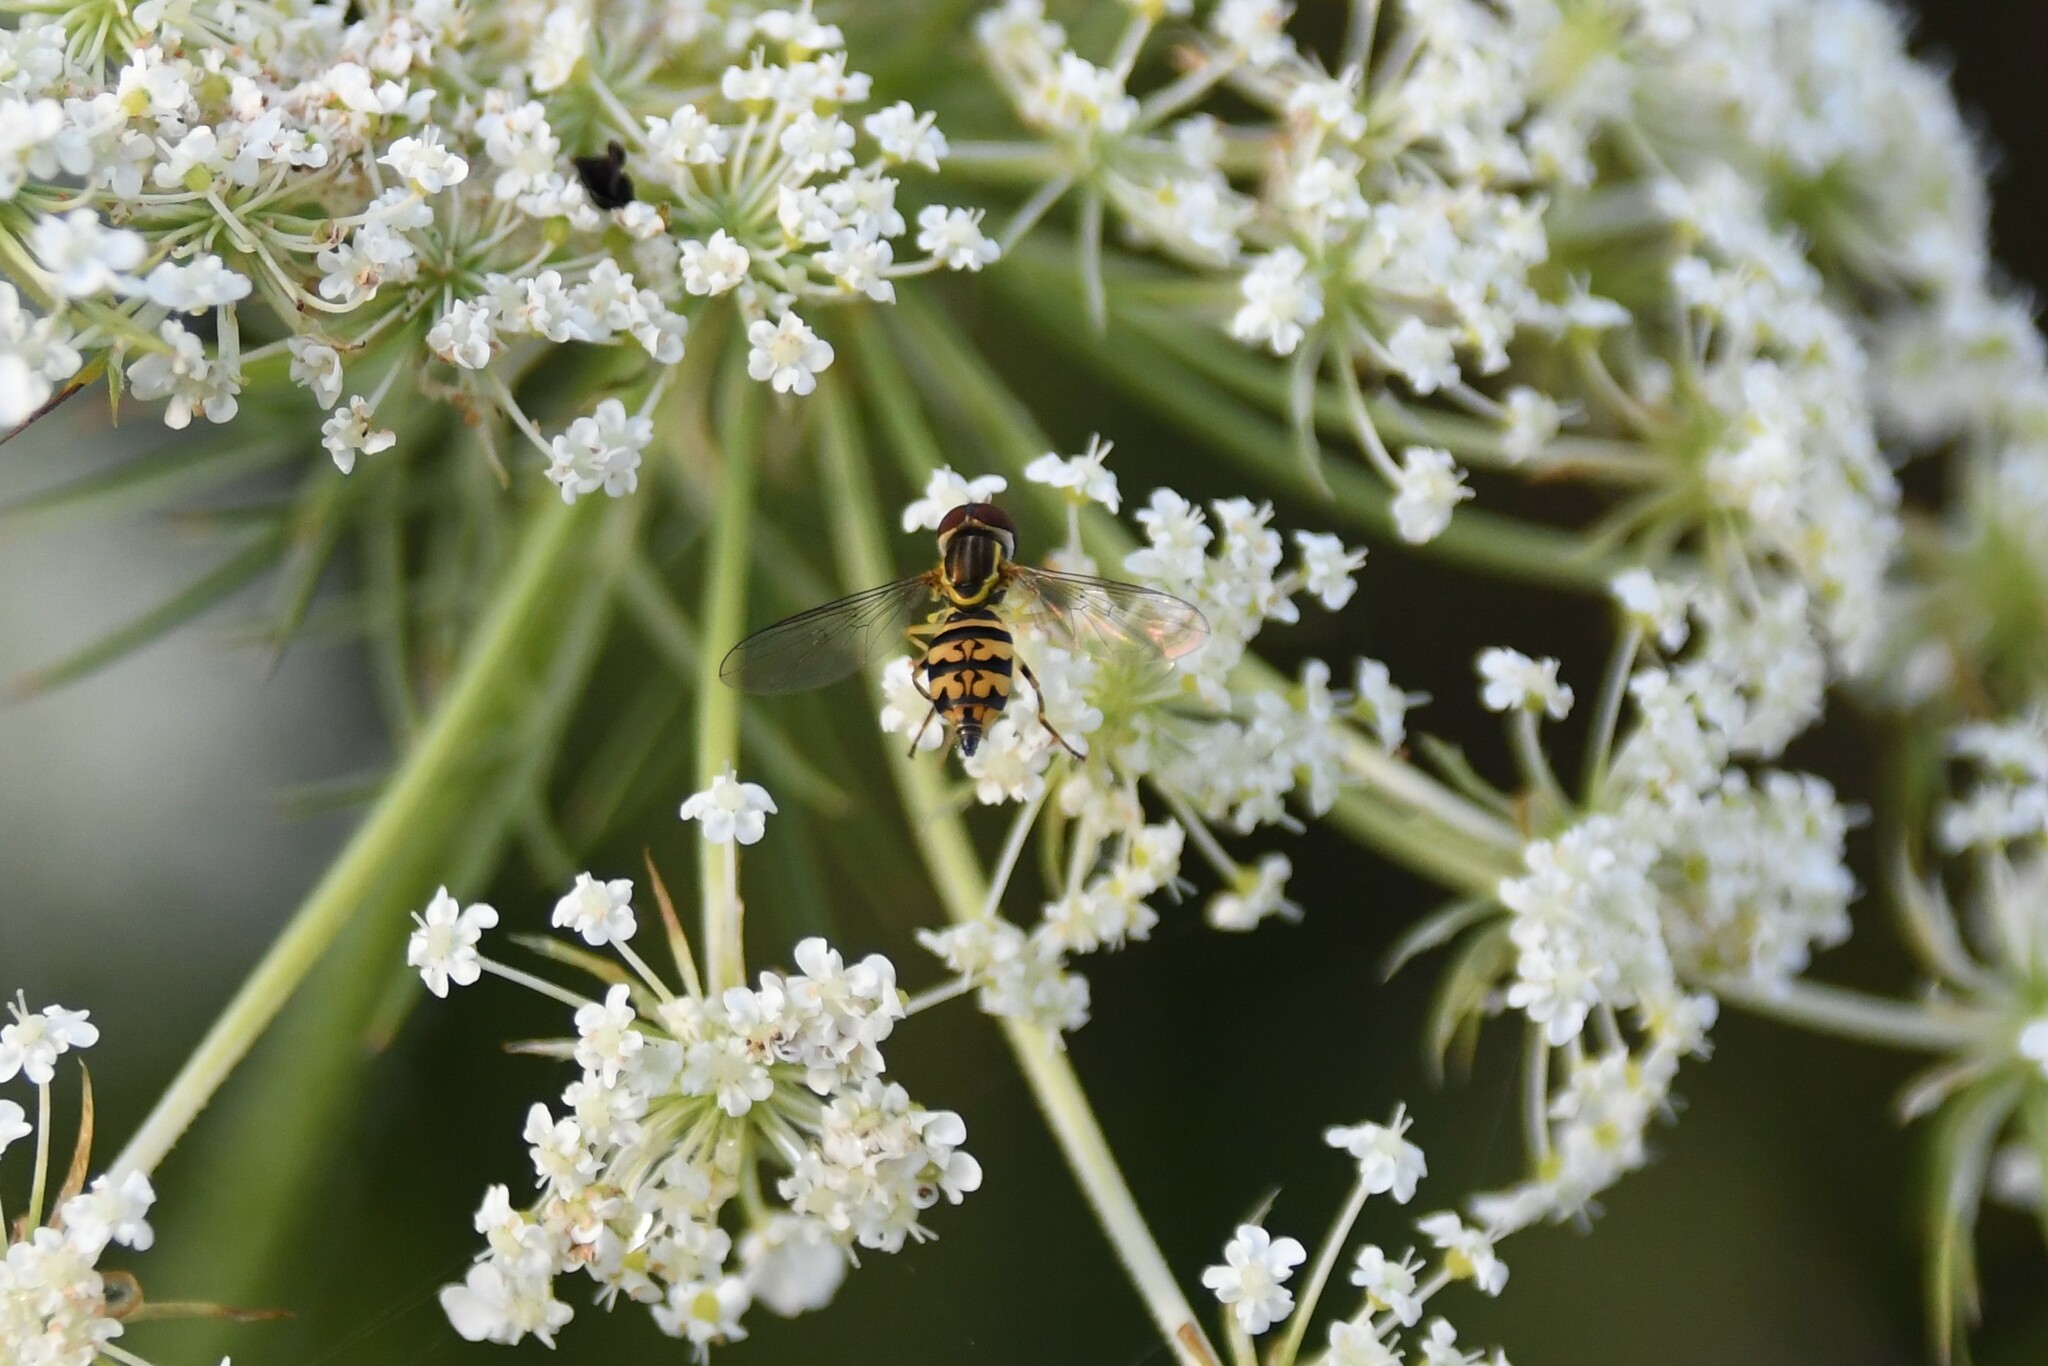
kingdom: Animalia
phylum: Arthropoda
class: Insecta
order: Diptera
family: Syrphidae
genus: Toxomerus
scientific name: Toxomerus geminatus
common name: Eastern calligrapher
